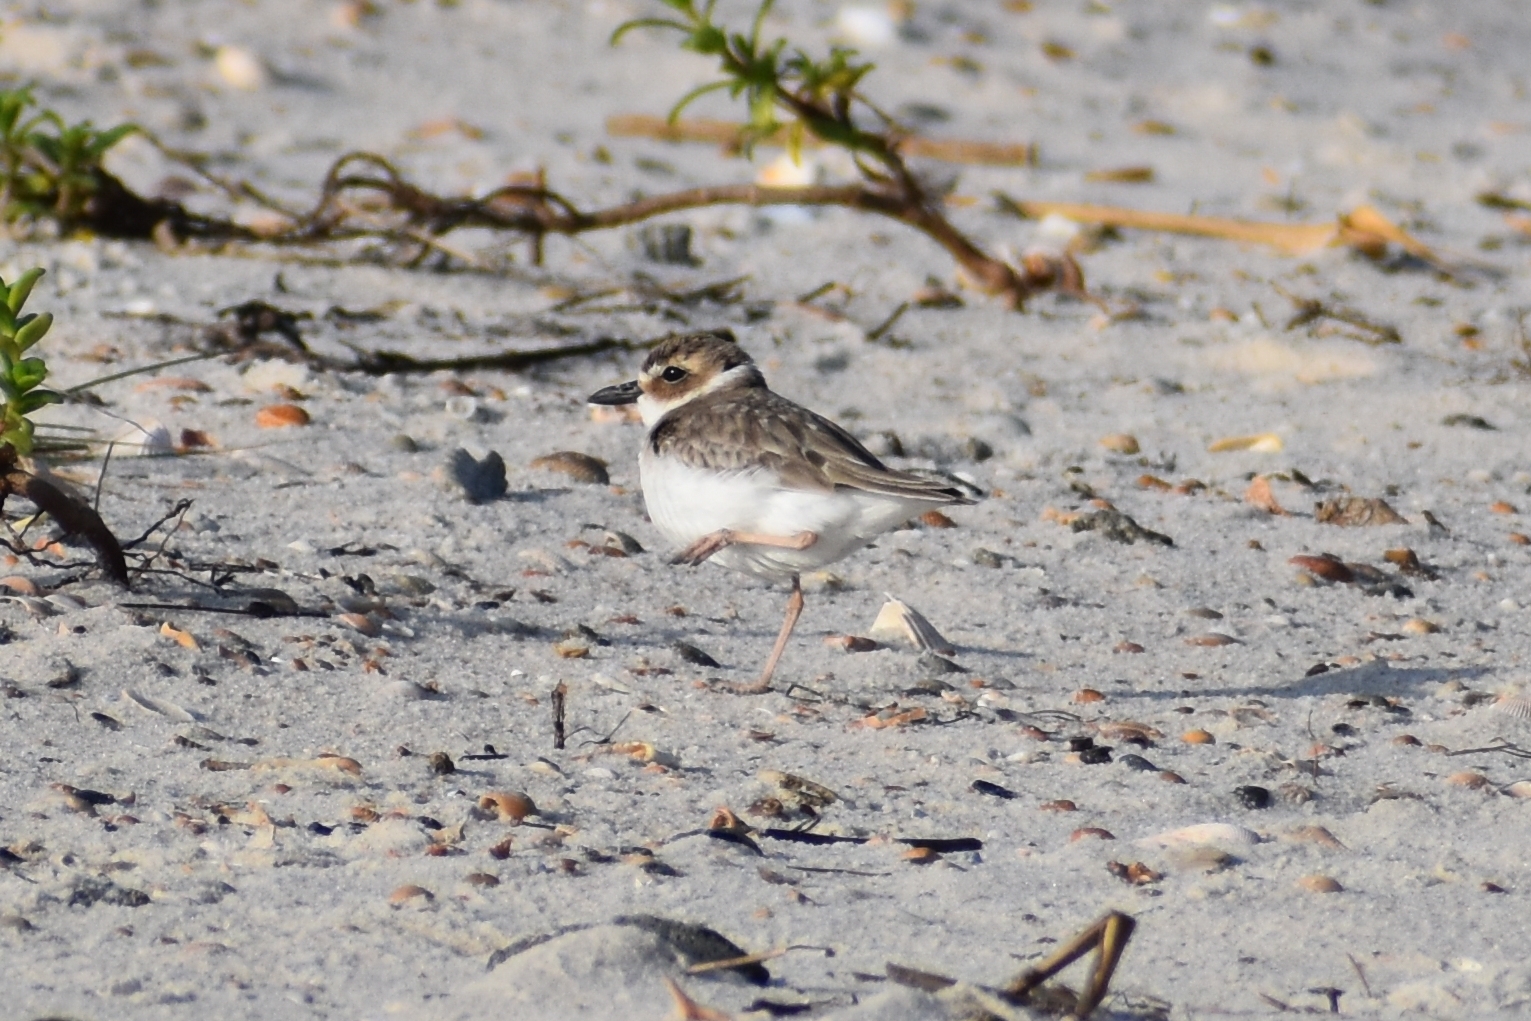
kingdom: Animalia
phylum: Chordata
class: Aves
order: Charadriiformes
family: Charadriidae
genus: Anarhynchus
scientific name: Anarhynchus
